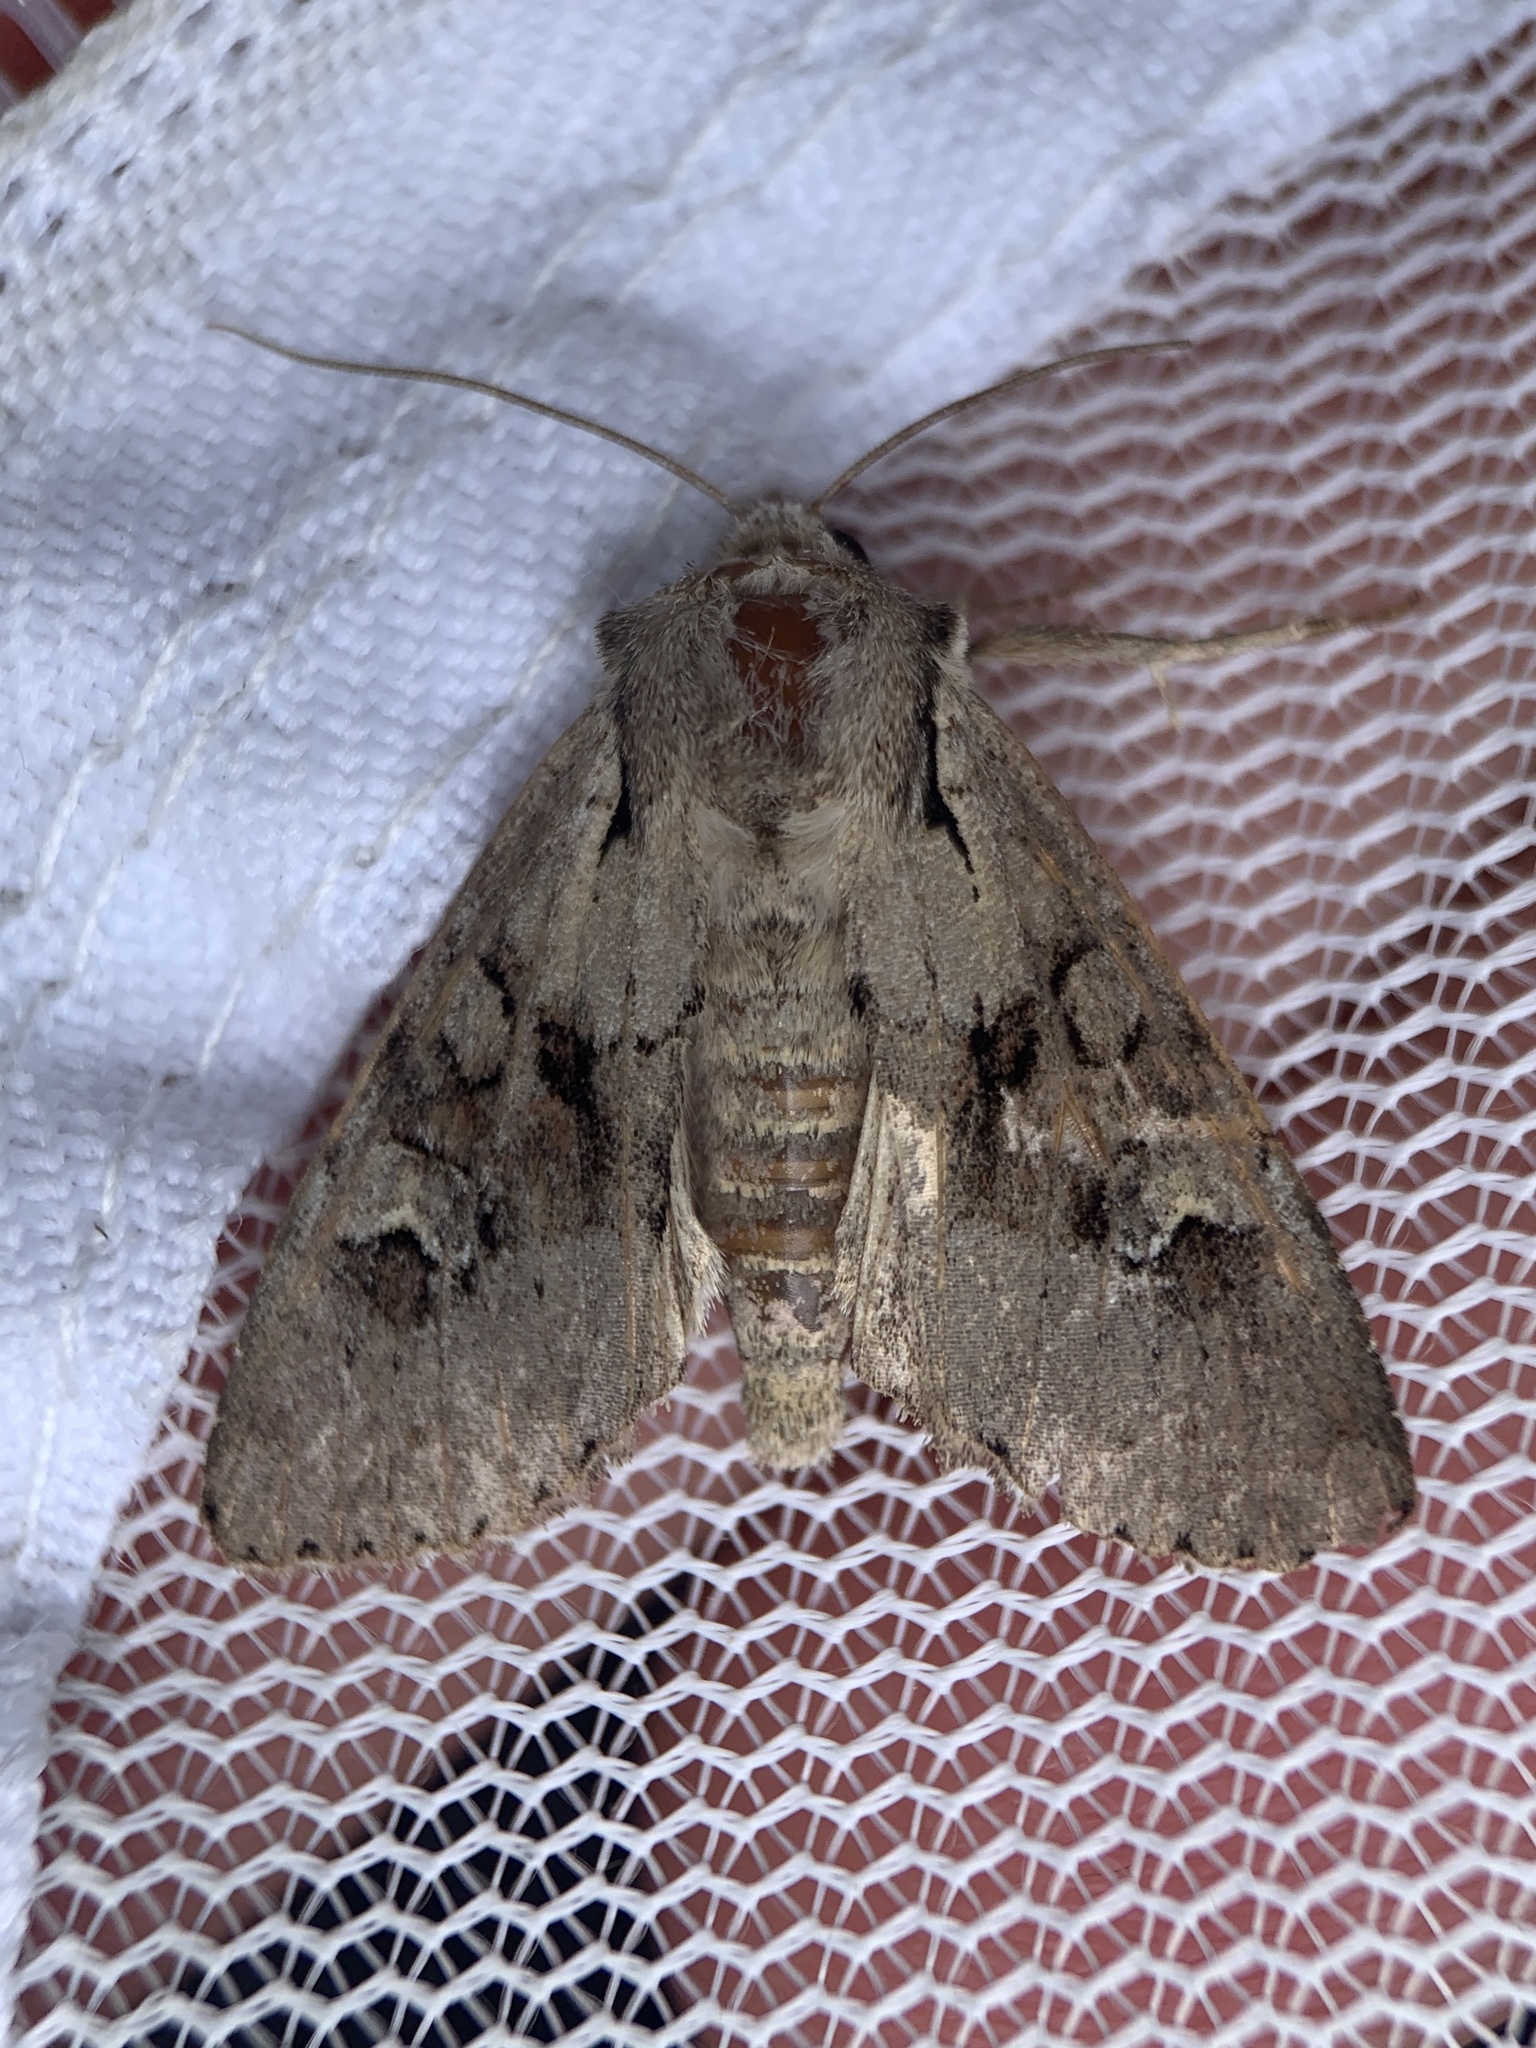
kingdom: Animalia
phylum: Arthropoda
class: Insecta
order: Lepidoptera
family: Noctuidae
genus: Apamea
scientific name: Apamea sordens
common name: Rustic shoulder-knot
